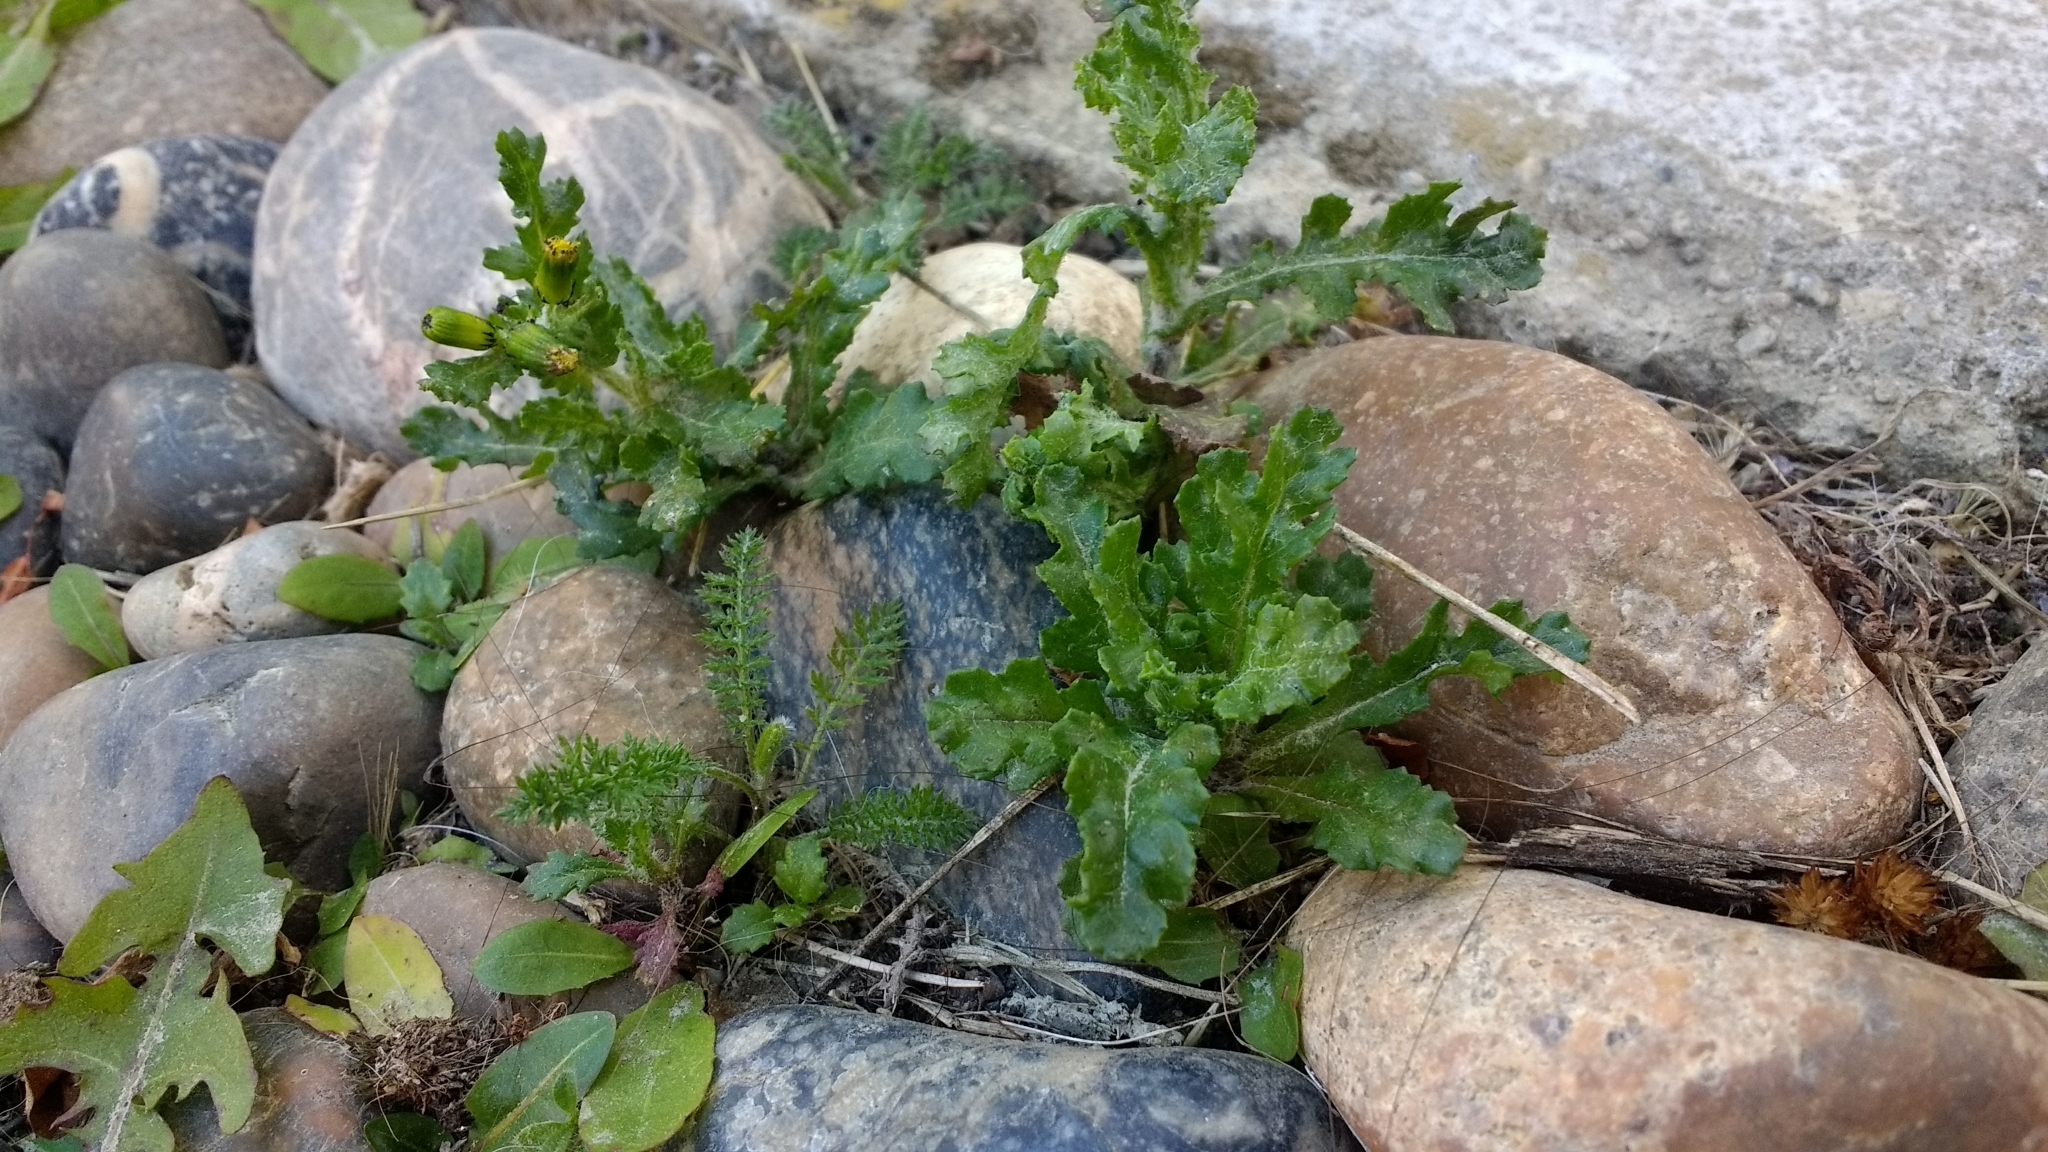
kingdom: Plantae
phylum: Tracheophyta
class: Magnoliopsida
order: Asterales
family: Asteraceae
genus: Senecio
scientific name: Senecio vulgaris
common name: Old-man-in-the-spring
